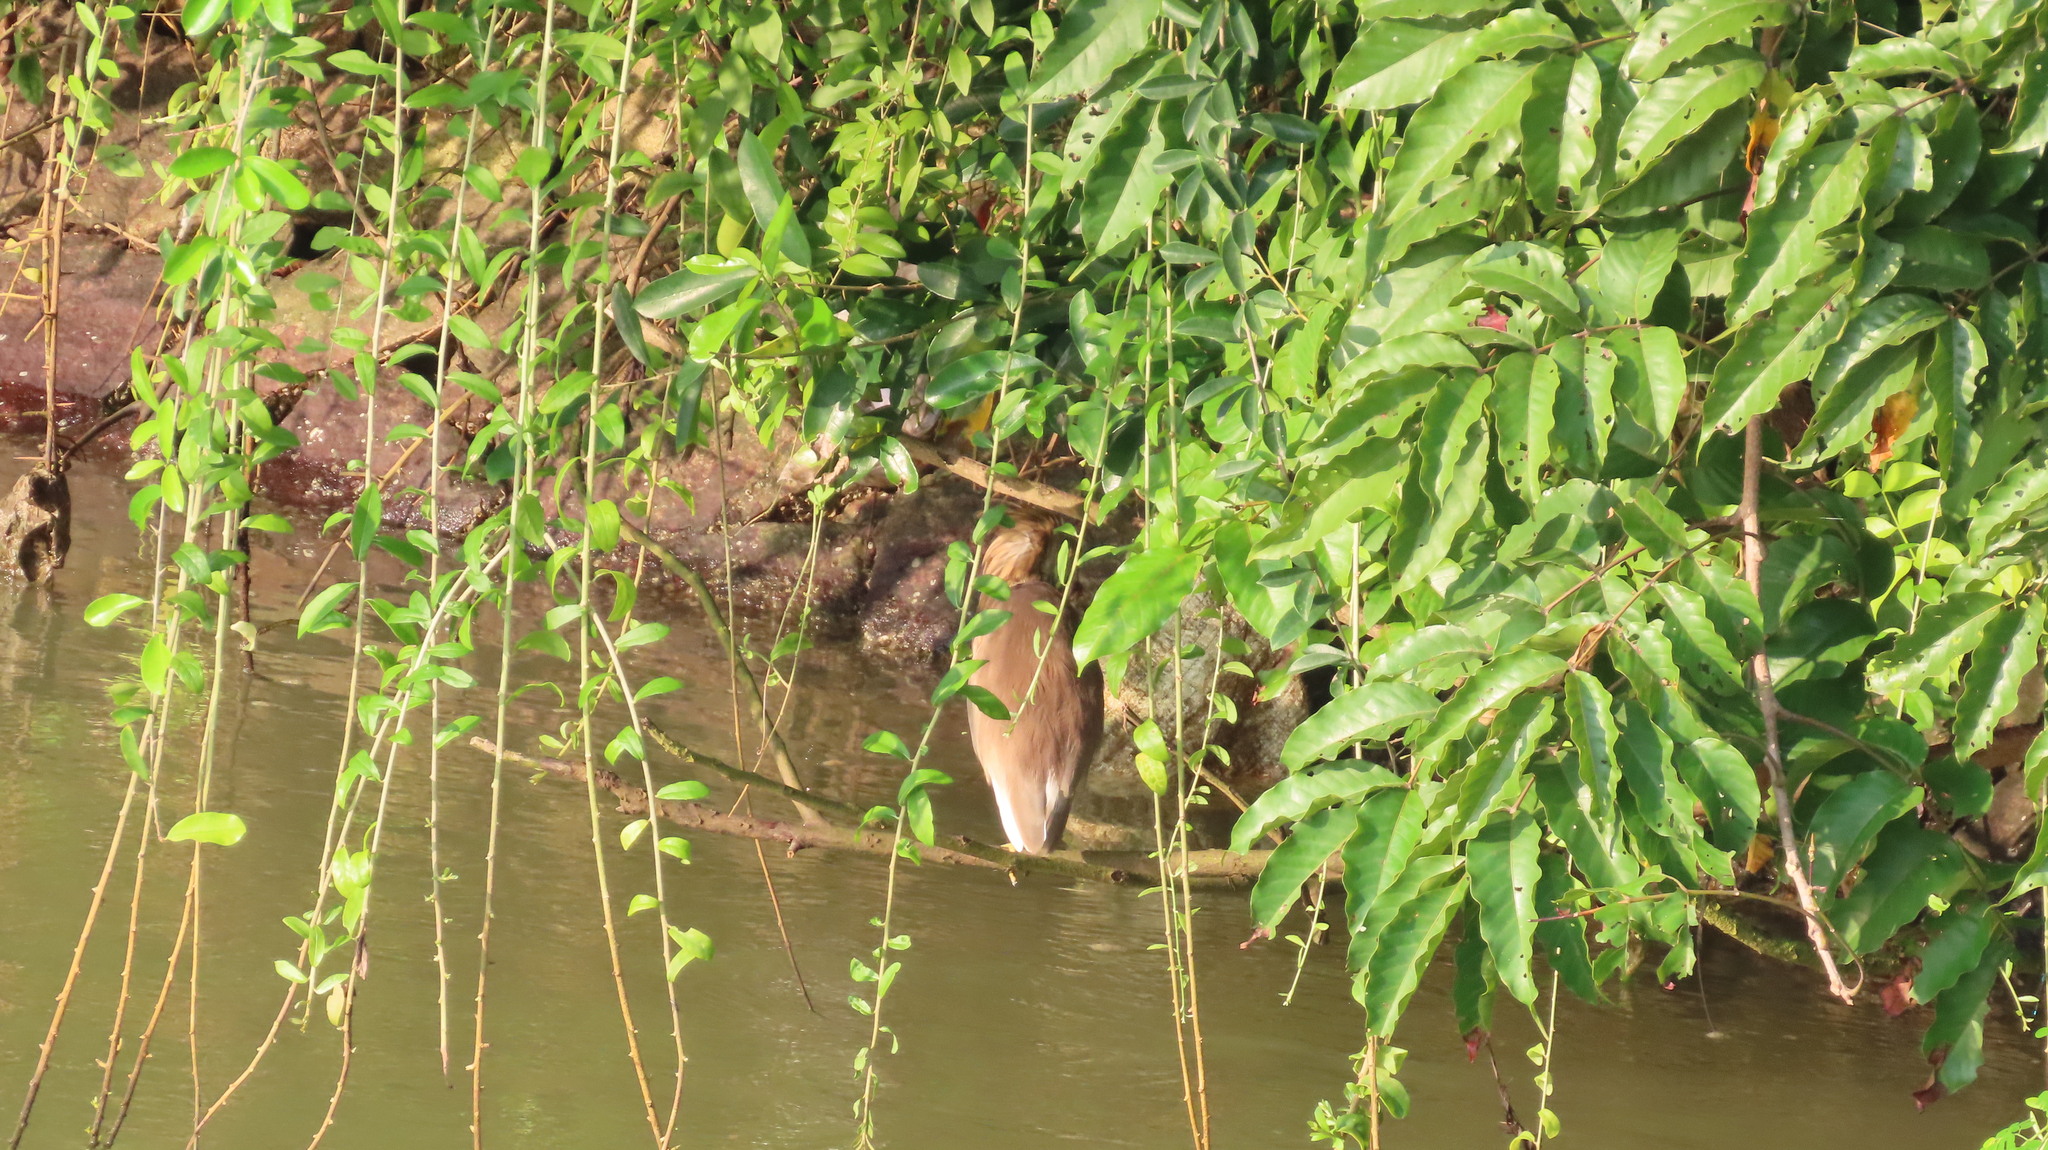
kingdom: Animalia
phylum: Chordata
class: Aves
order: Pelecaniformes
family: Ardeidae
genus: Ardeola
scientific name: Ardeola grayii
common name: Indian pond heron
